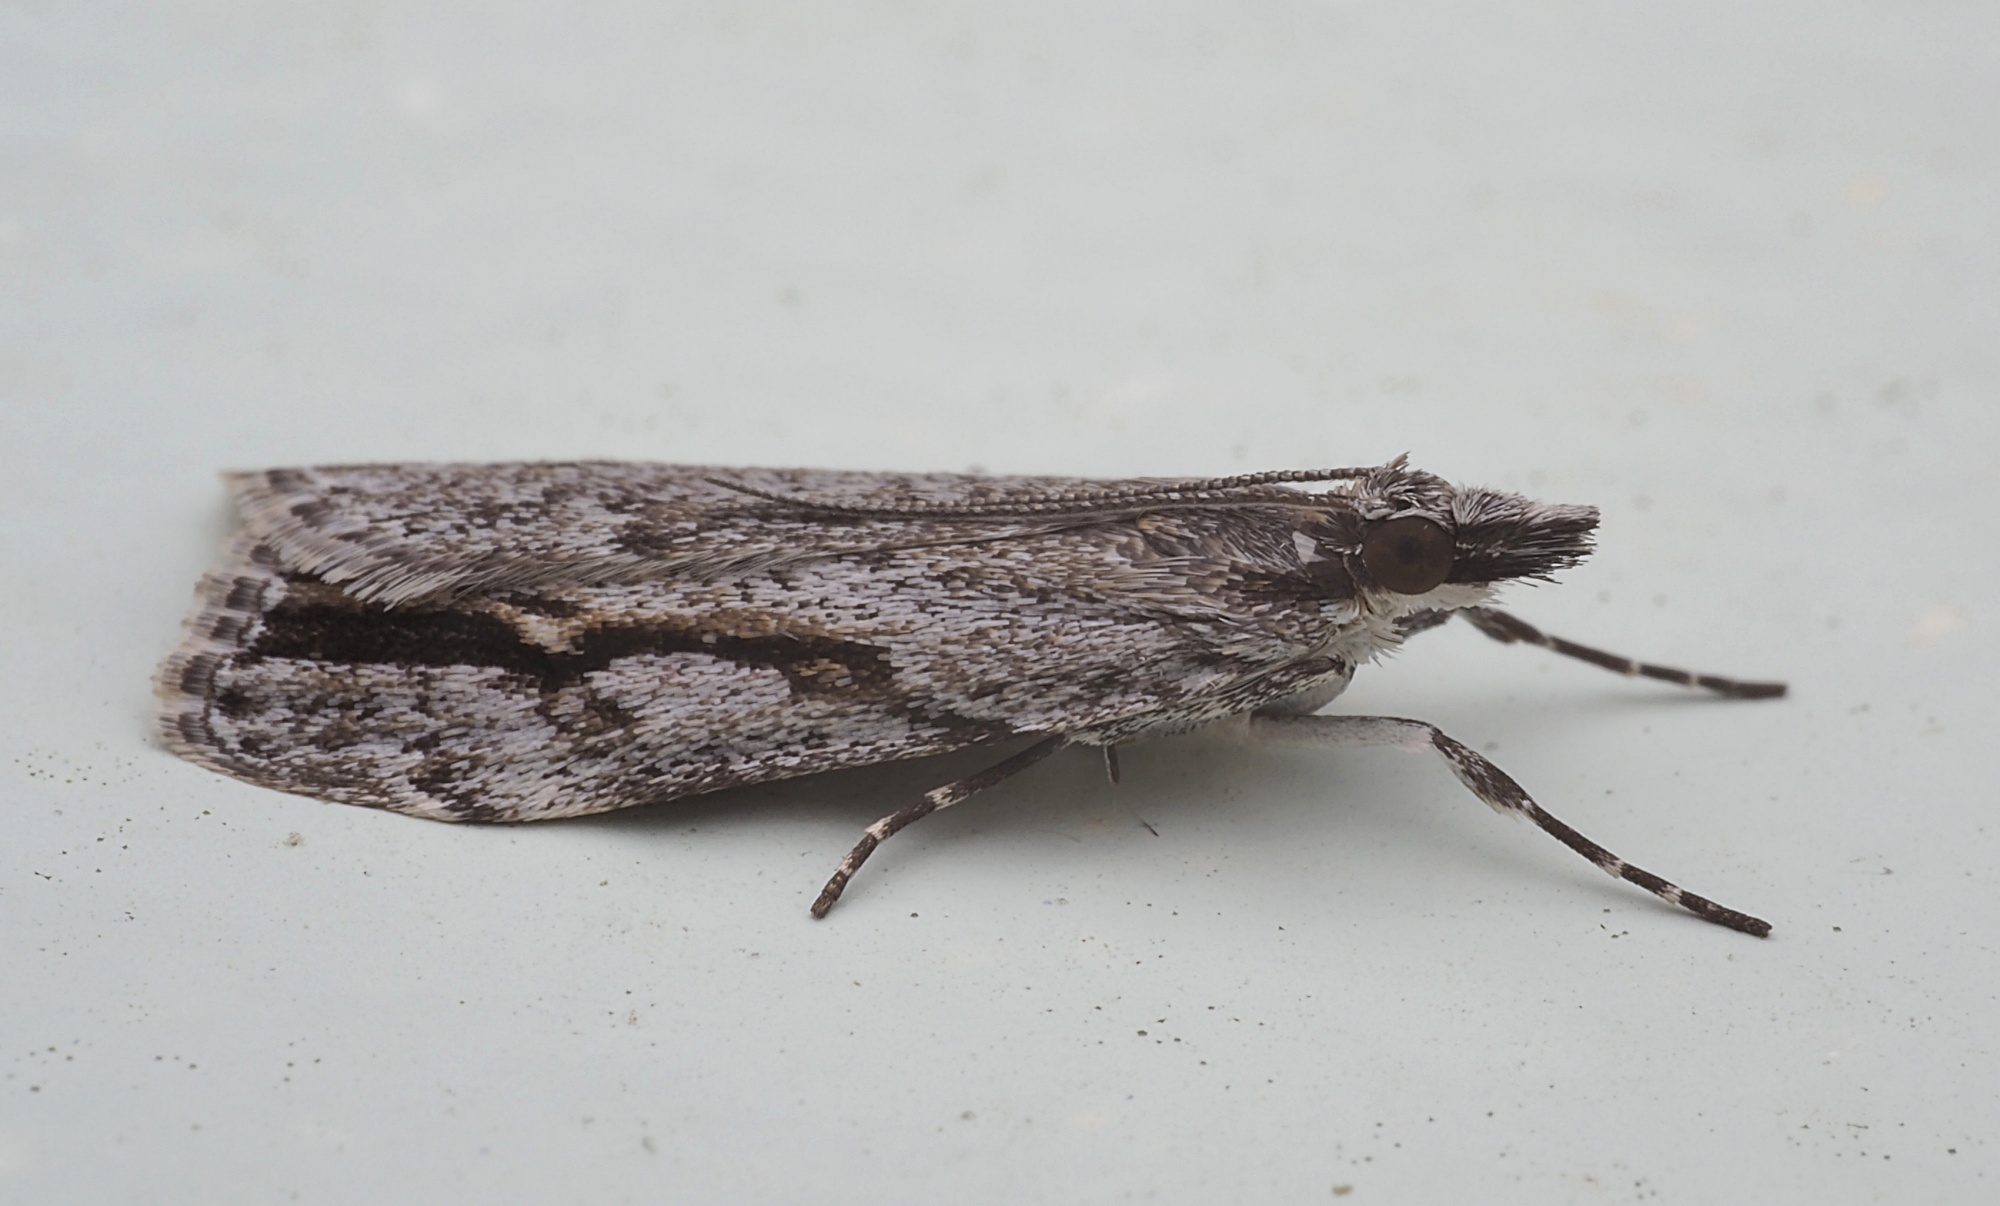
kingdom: Animalia
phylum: Arthropoda
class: Insecta
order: Lepidoptera
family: Crambidae
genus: Eudonia
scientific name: Eudonia bisinualis
